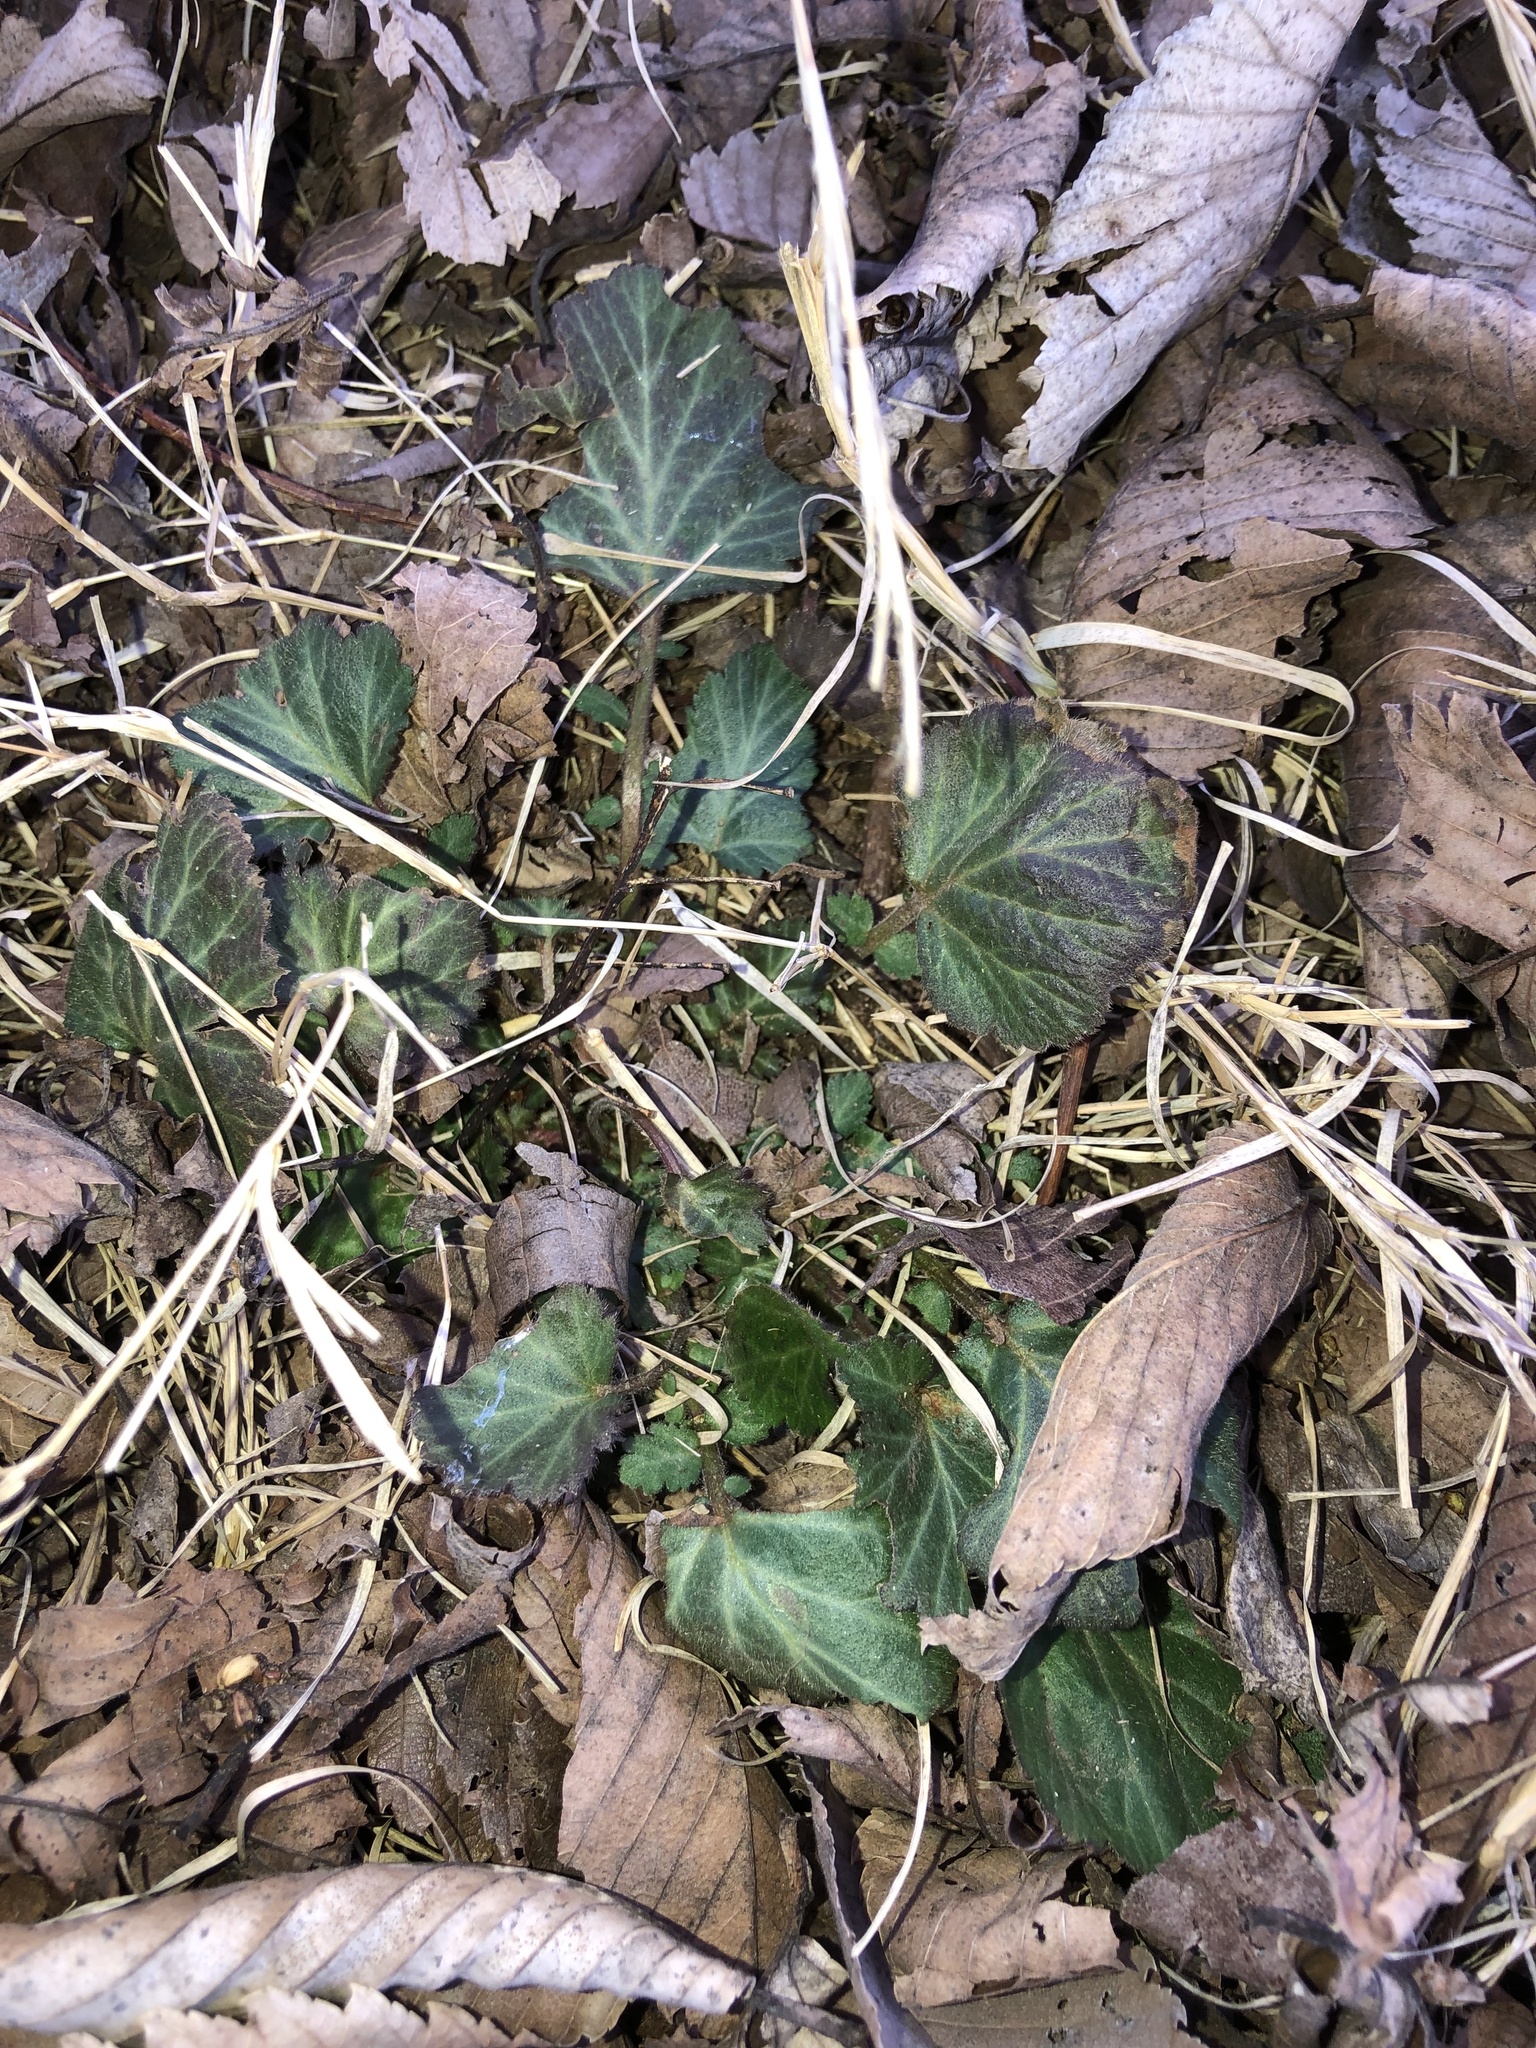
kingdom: Plantae
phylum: Tracheophyta
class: Magnoliopsida
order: Rosales
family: Rosaceae
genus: Geum
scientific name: Geum canadense
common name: White avens
